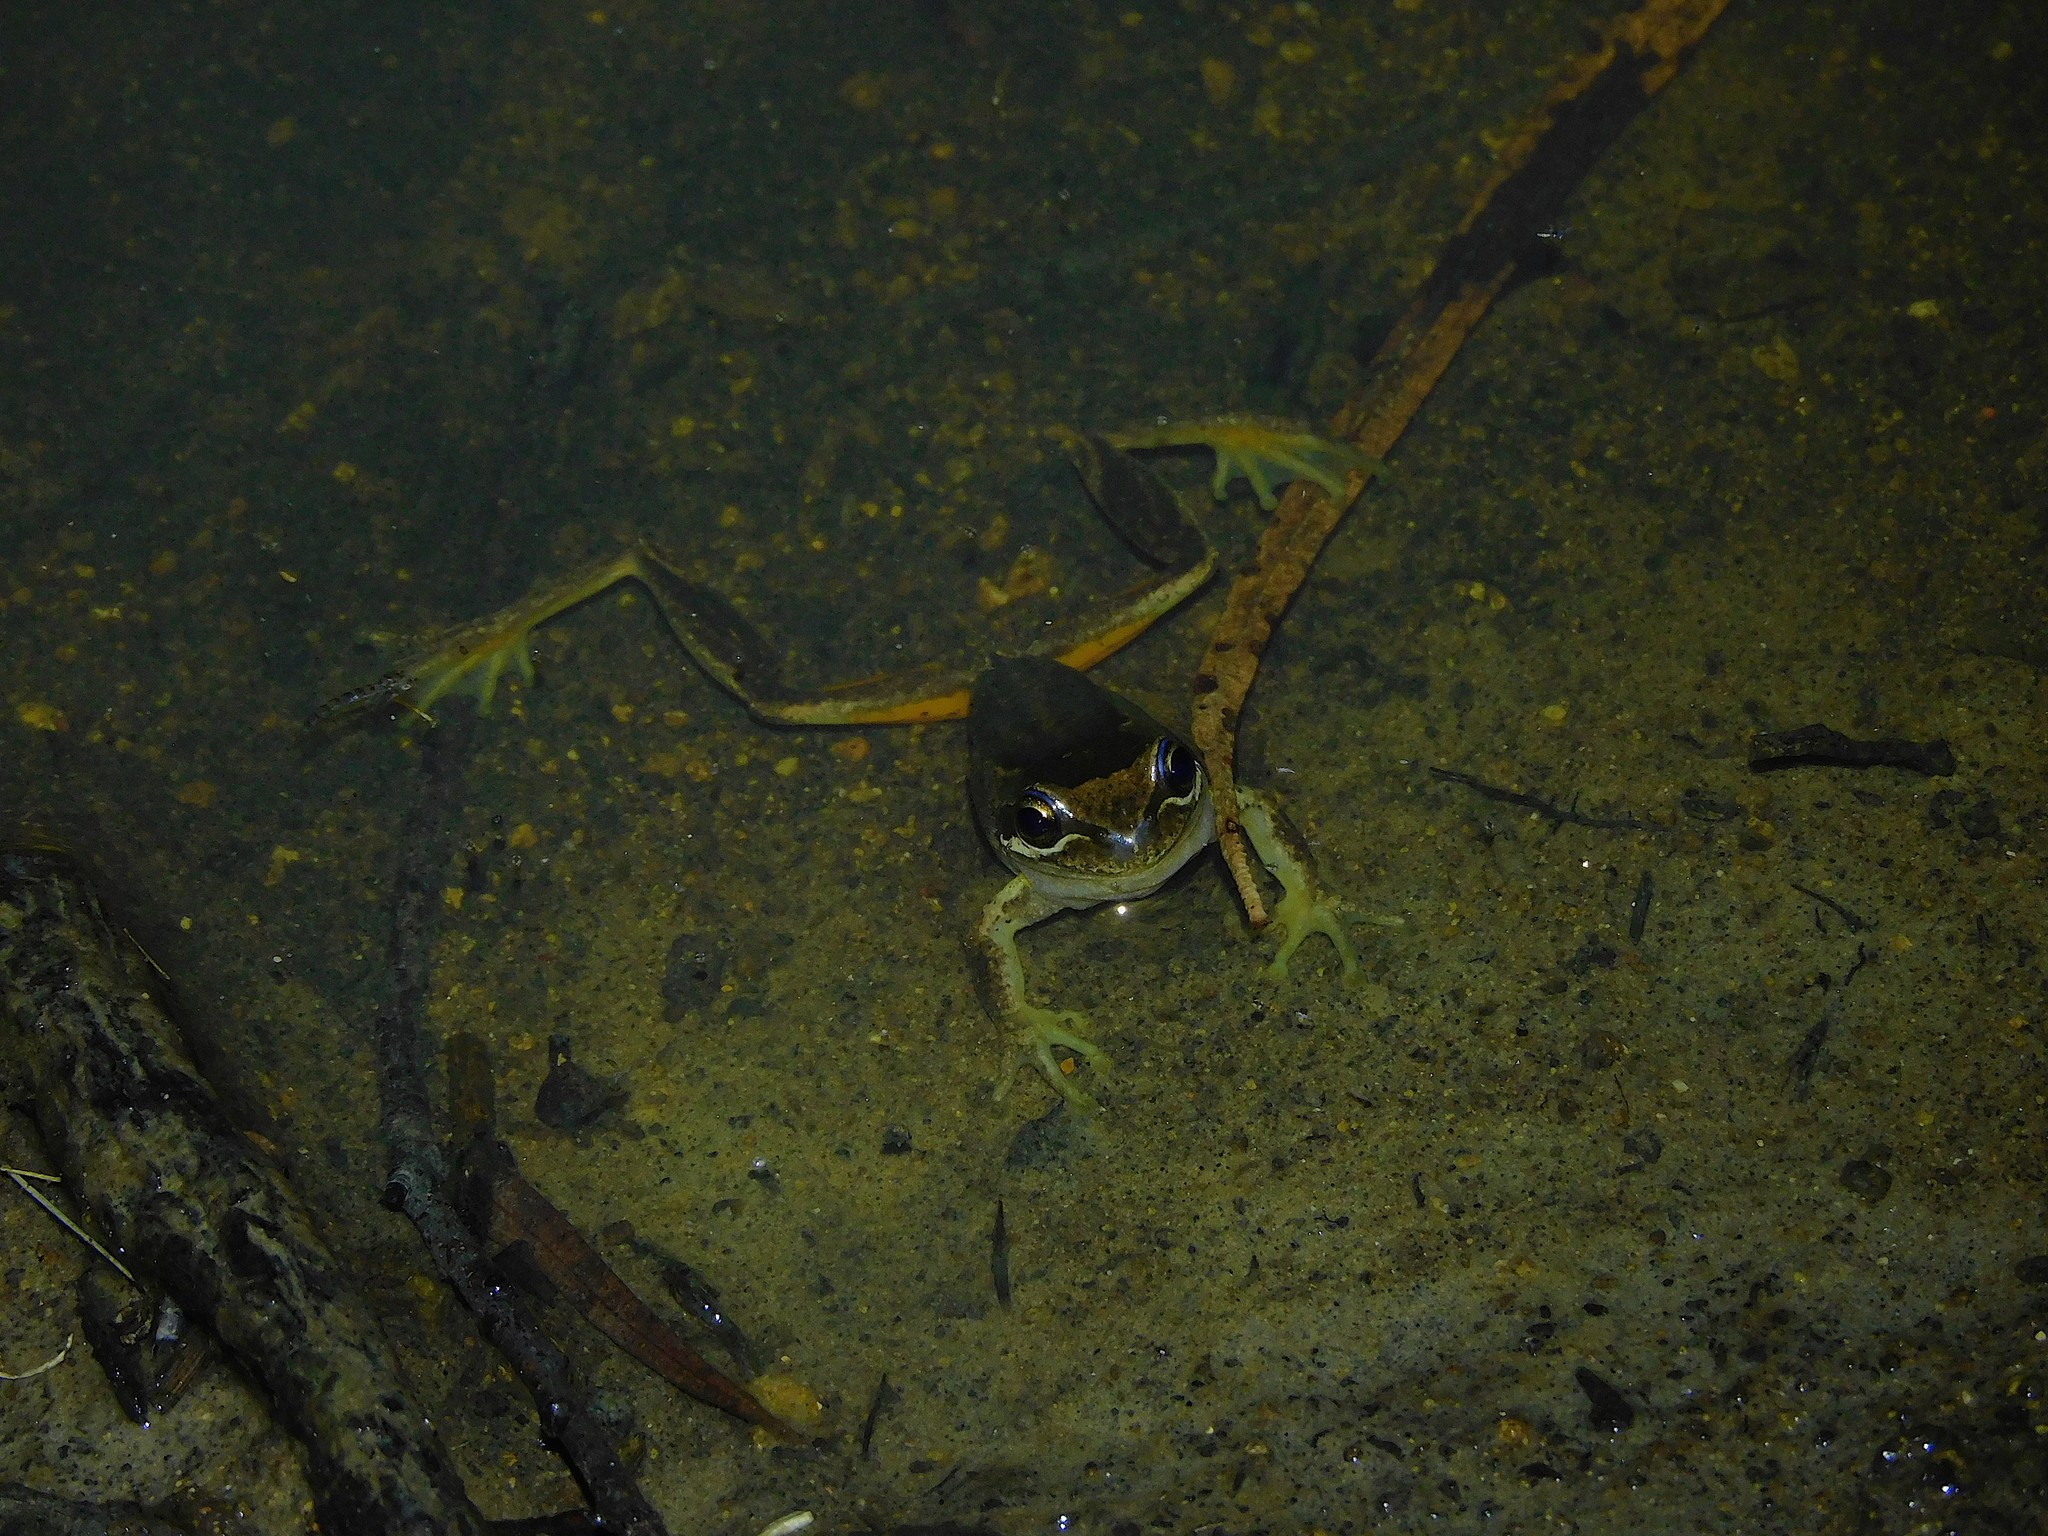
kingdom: Animalia
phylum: Chordata
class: Amphibia
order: Anura
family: Pelodryadidae
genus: Litoria
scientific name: Litoria ewingii
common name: Southern brown tree frog
